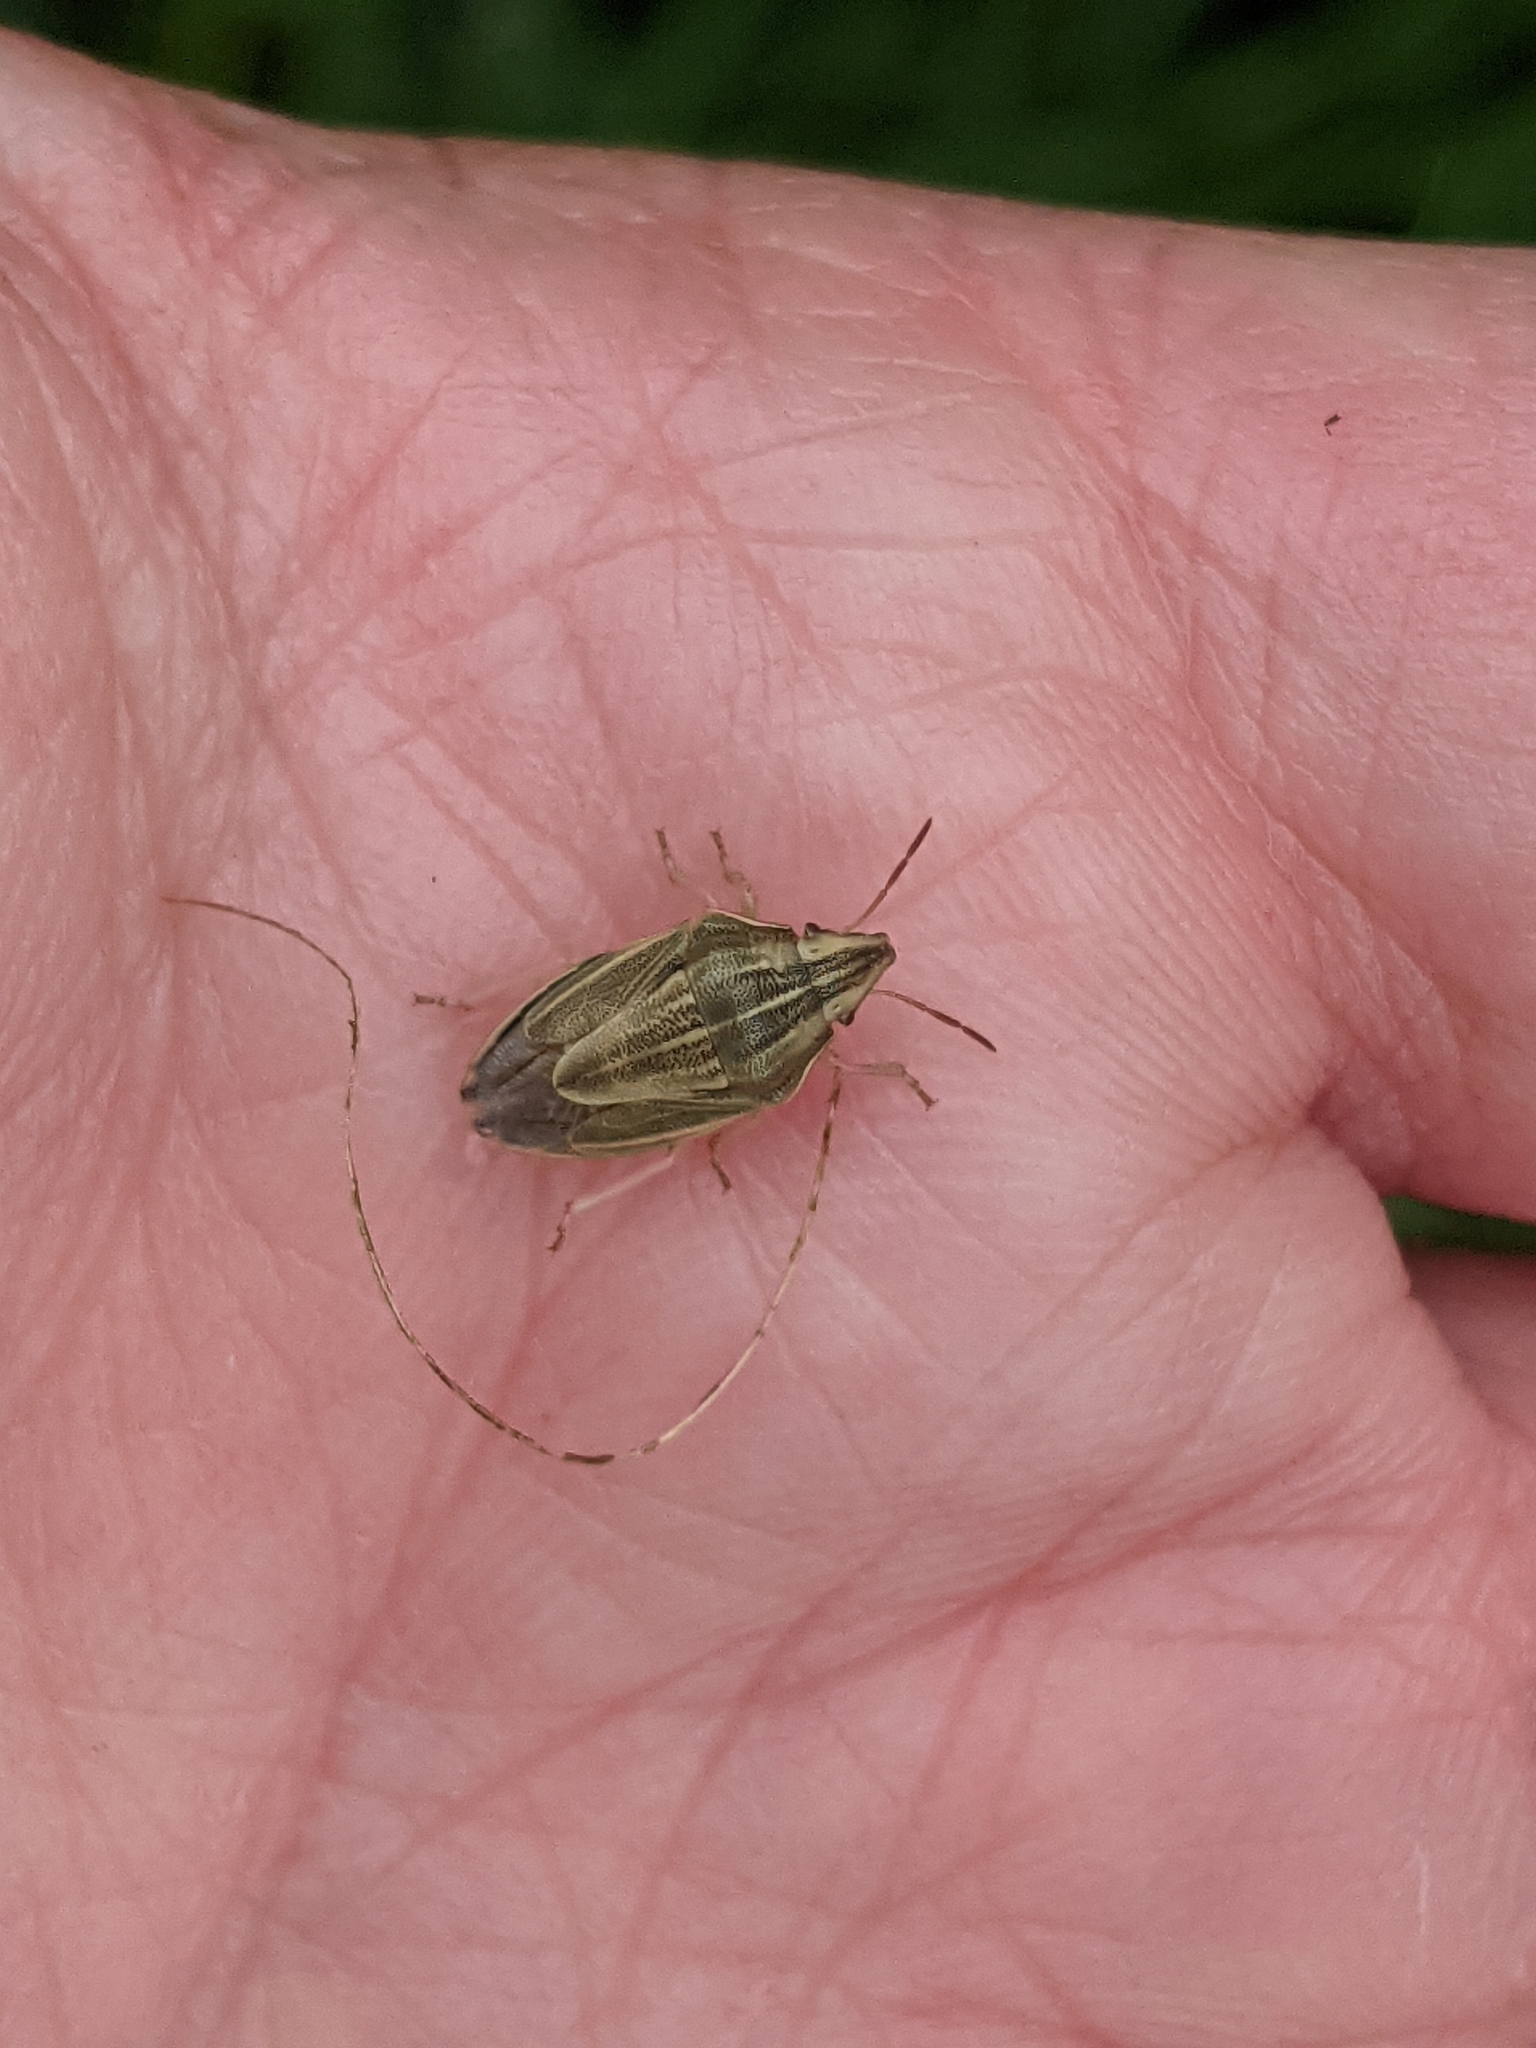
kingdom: Animalia
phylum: Arthropoda
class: Insecta
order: Hemiptera
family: Pentatomidae
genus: Aelia
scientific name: Aelia acuminata
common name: Bishop's mitre
